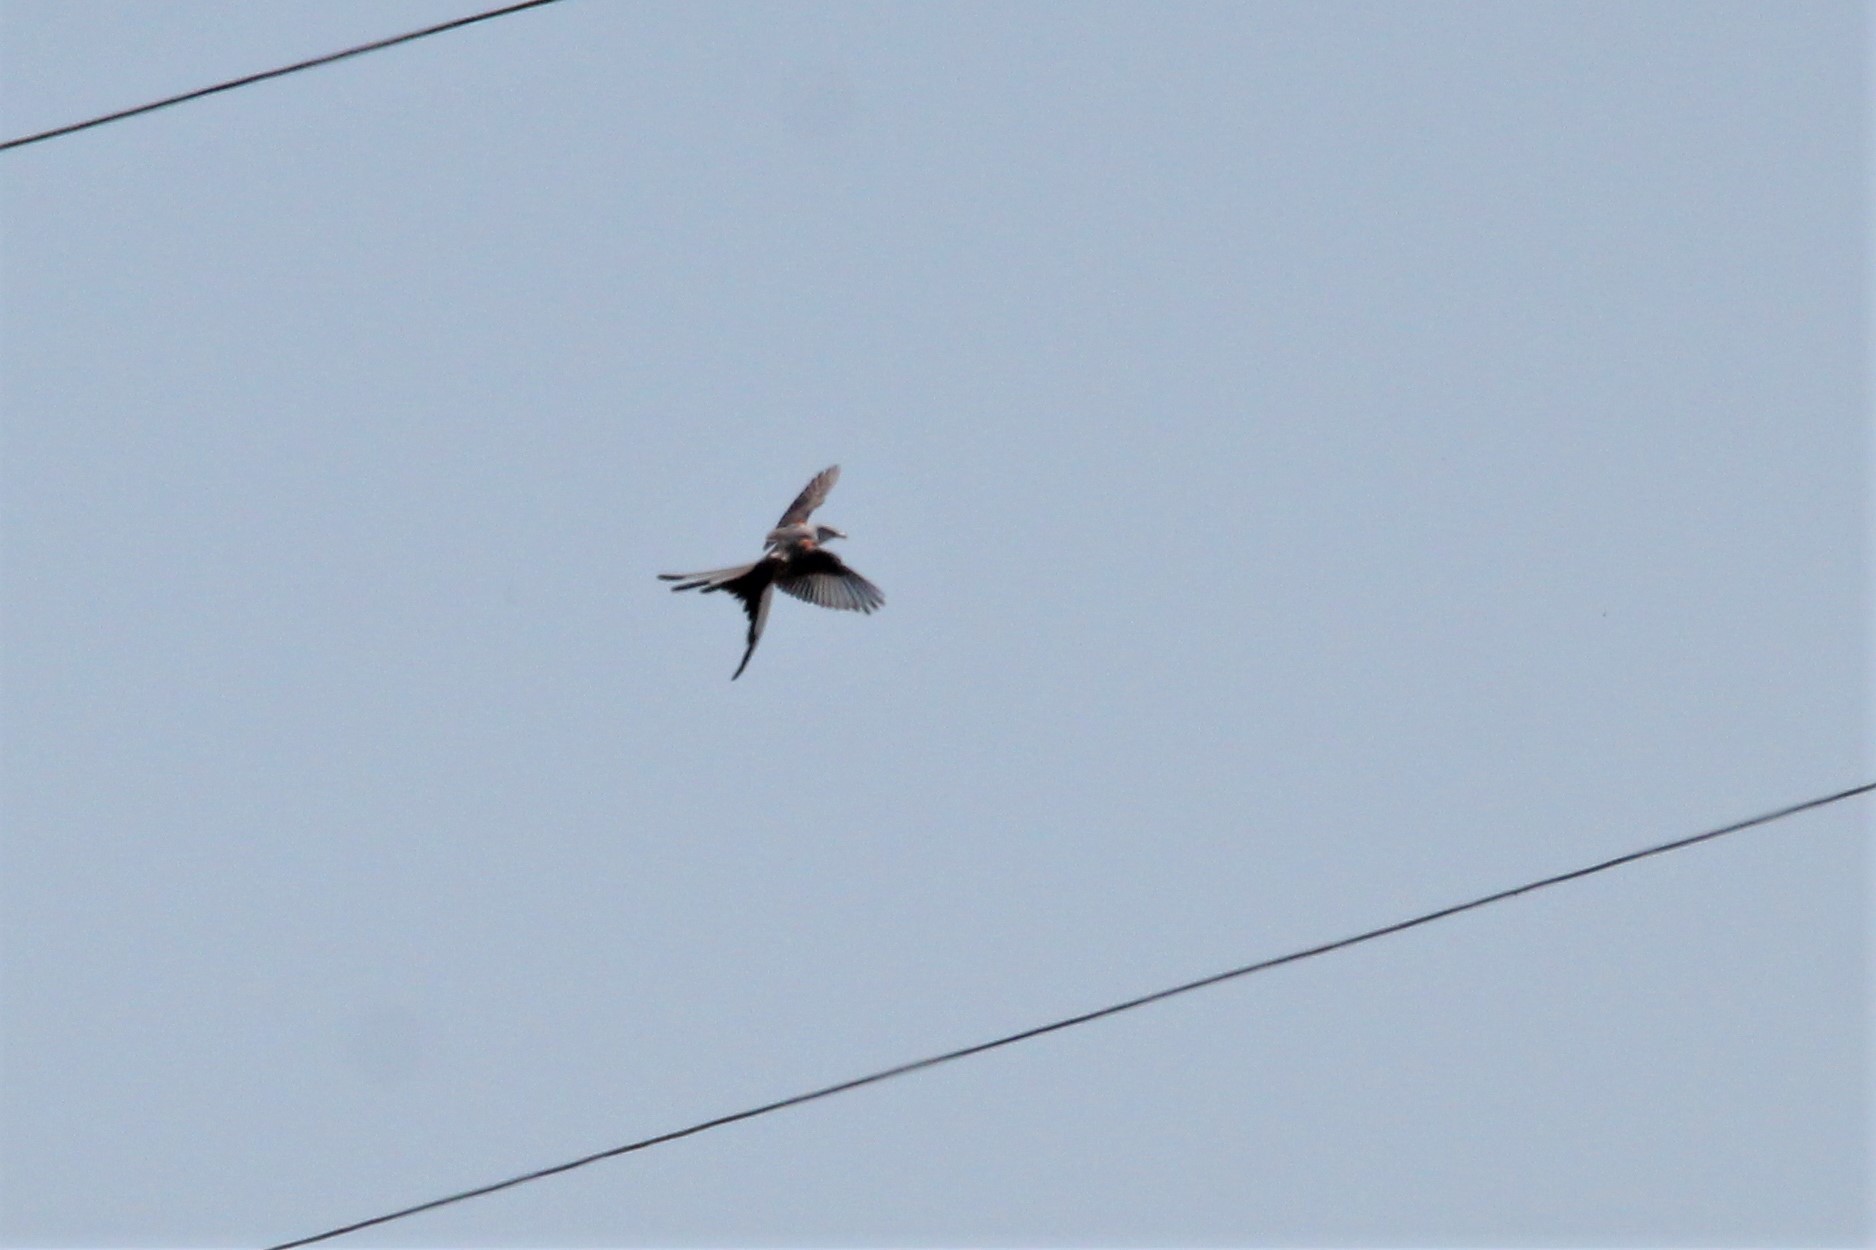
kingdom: Animalia
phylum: Chordata
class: Aves
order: Passeriformes
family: Tyrannidae
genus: Tyrannus
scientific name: Tyrannus forficatus
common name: Scissor-tailed flycatcher
